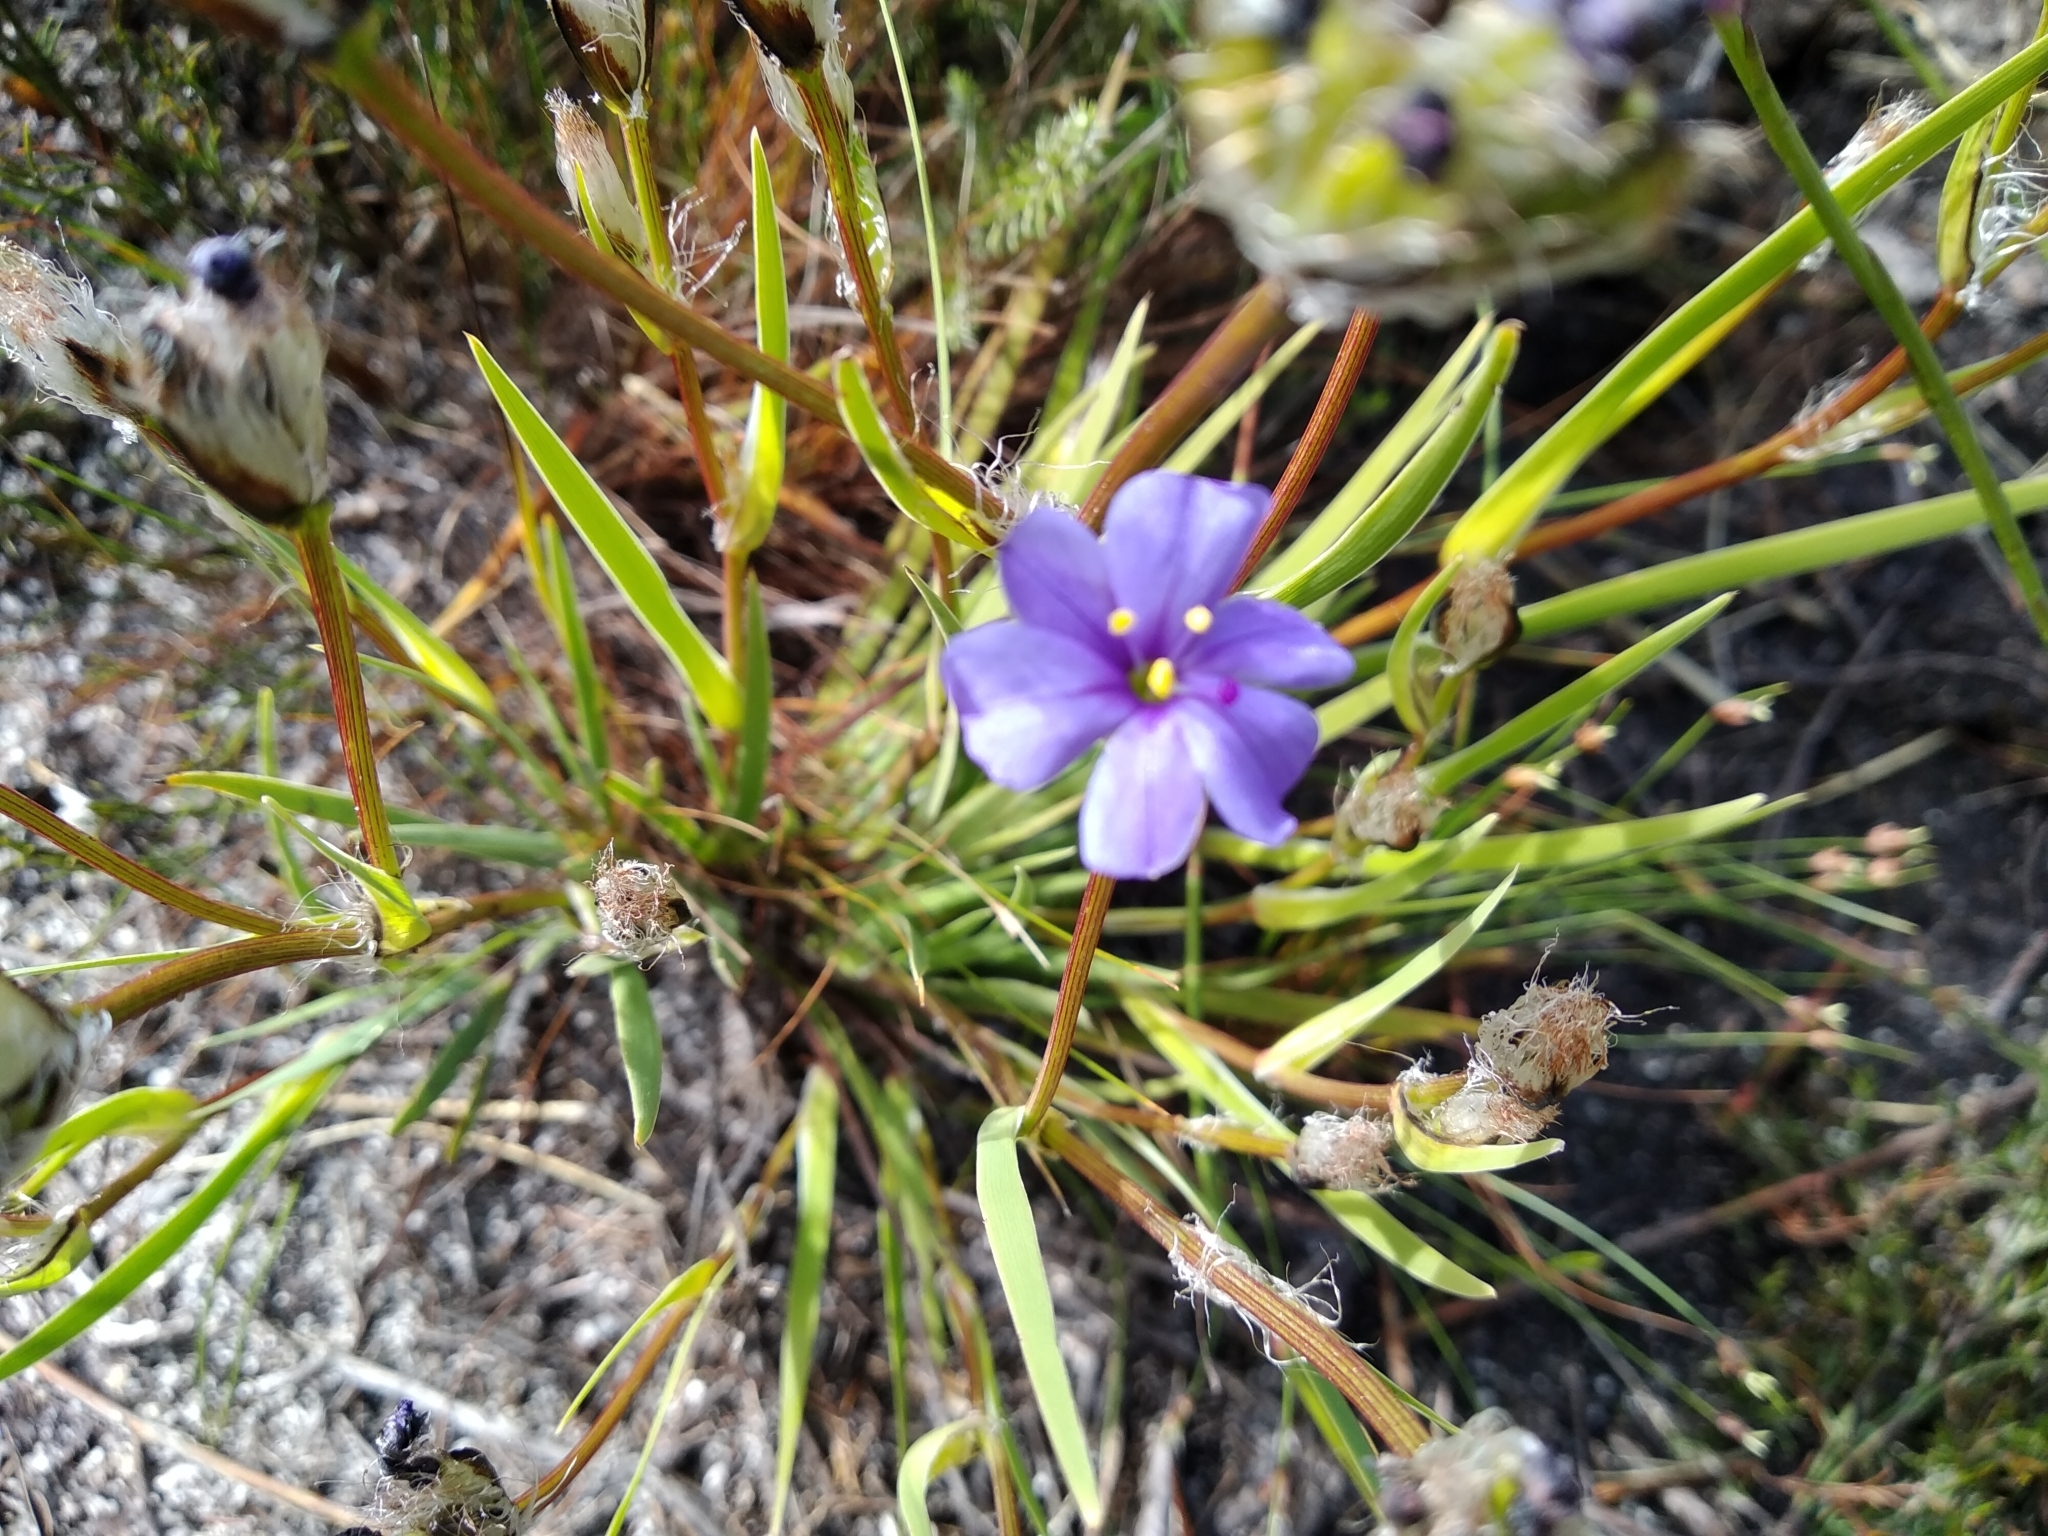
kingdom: Plantae
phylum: Tracheophyta
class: Liliopsida
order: Asparagales
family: Iridaceae
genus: Aristea
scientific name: Aristea africana
